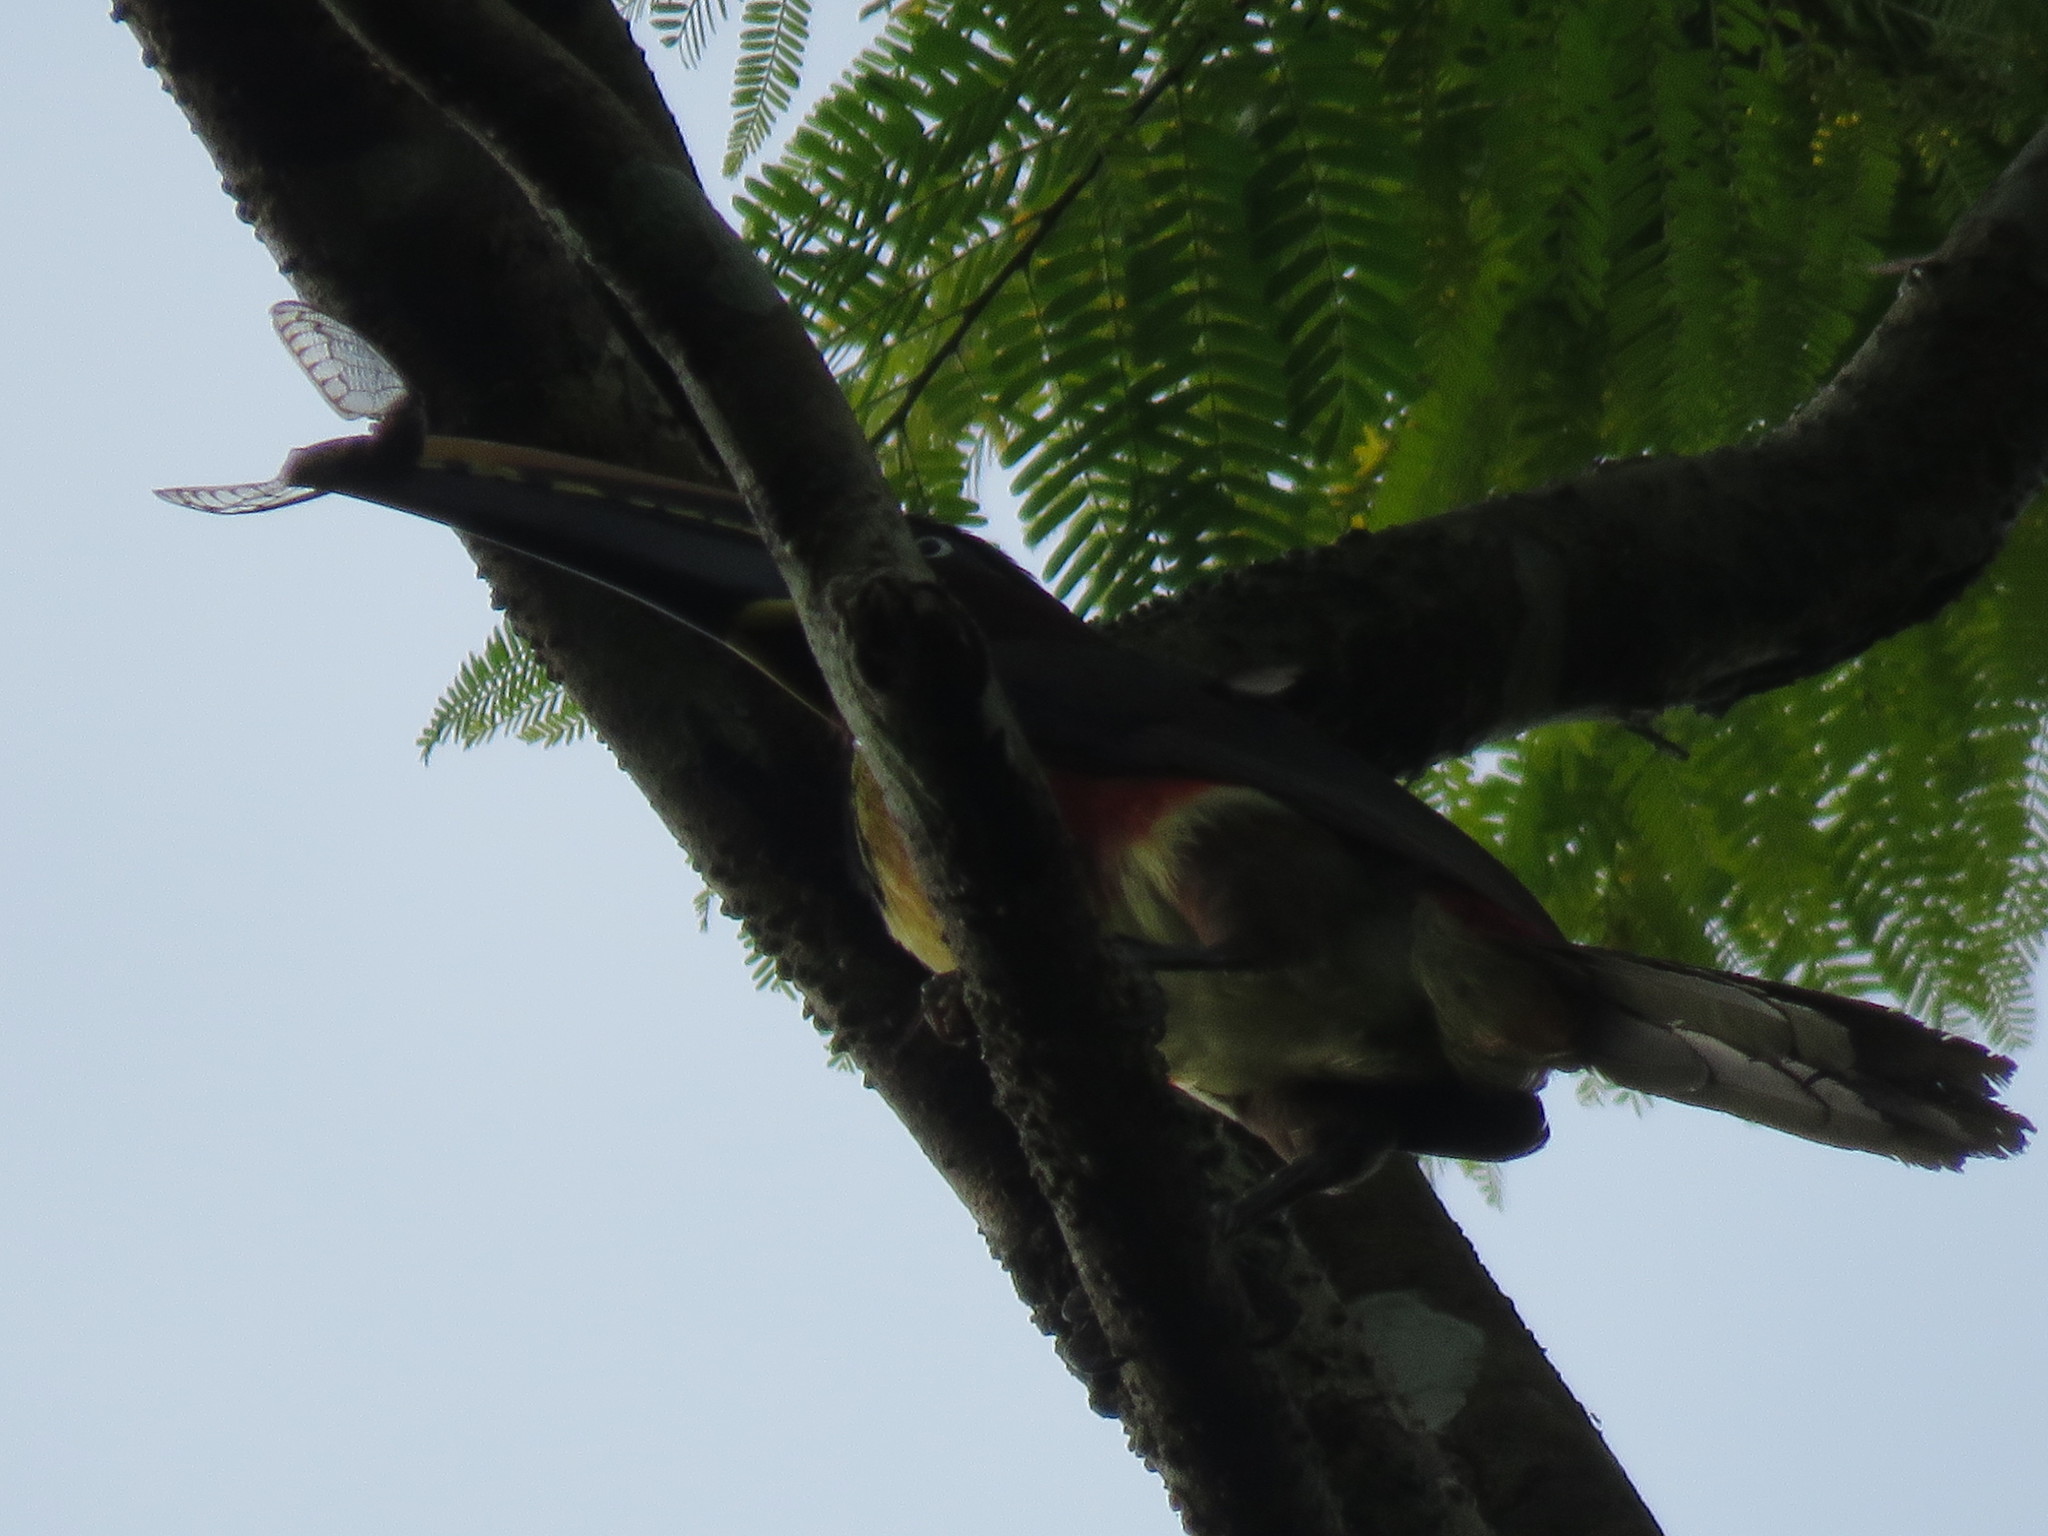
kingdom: Animalia
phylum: Chordata
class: Aves
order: Piciformes
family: Ramphastidae
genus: Pteroglossus
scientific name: Pteroglossus castanotis
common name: Chestnut-eared aracari
